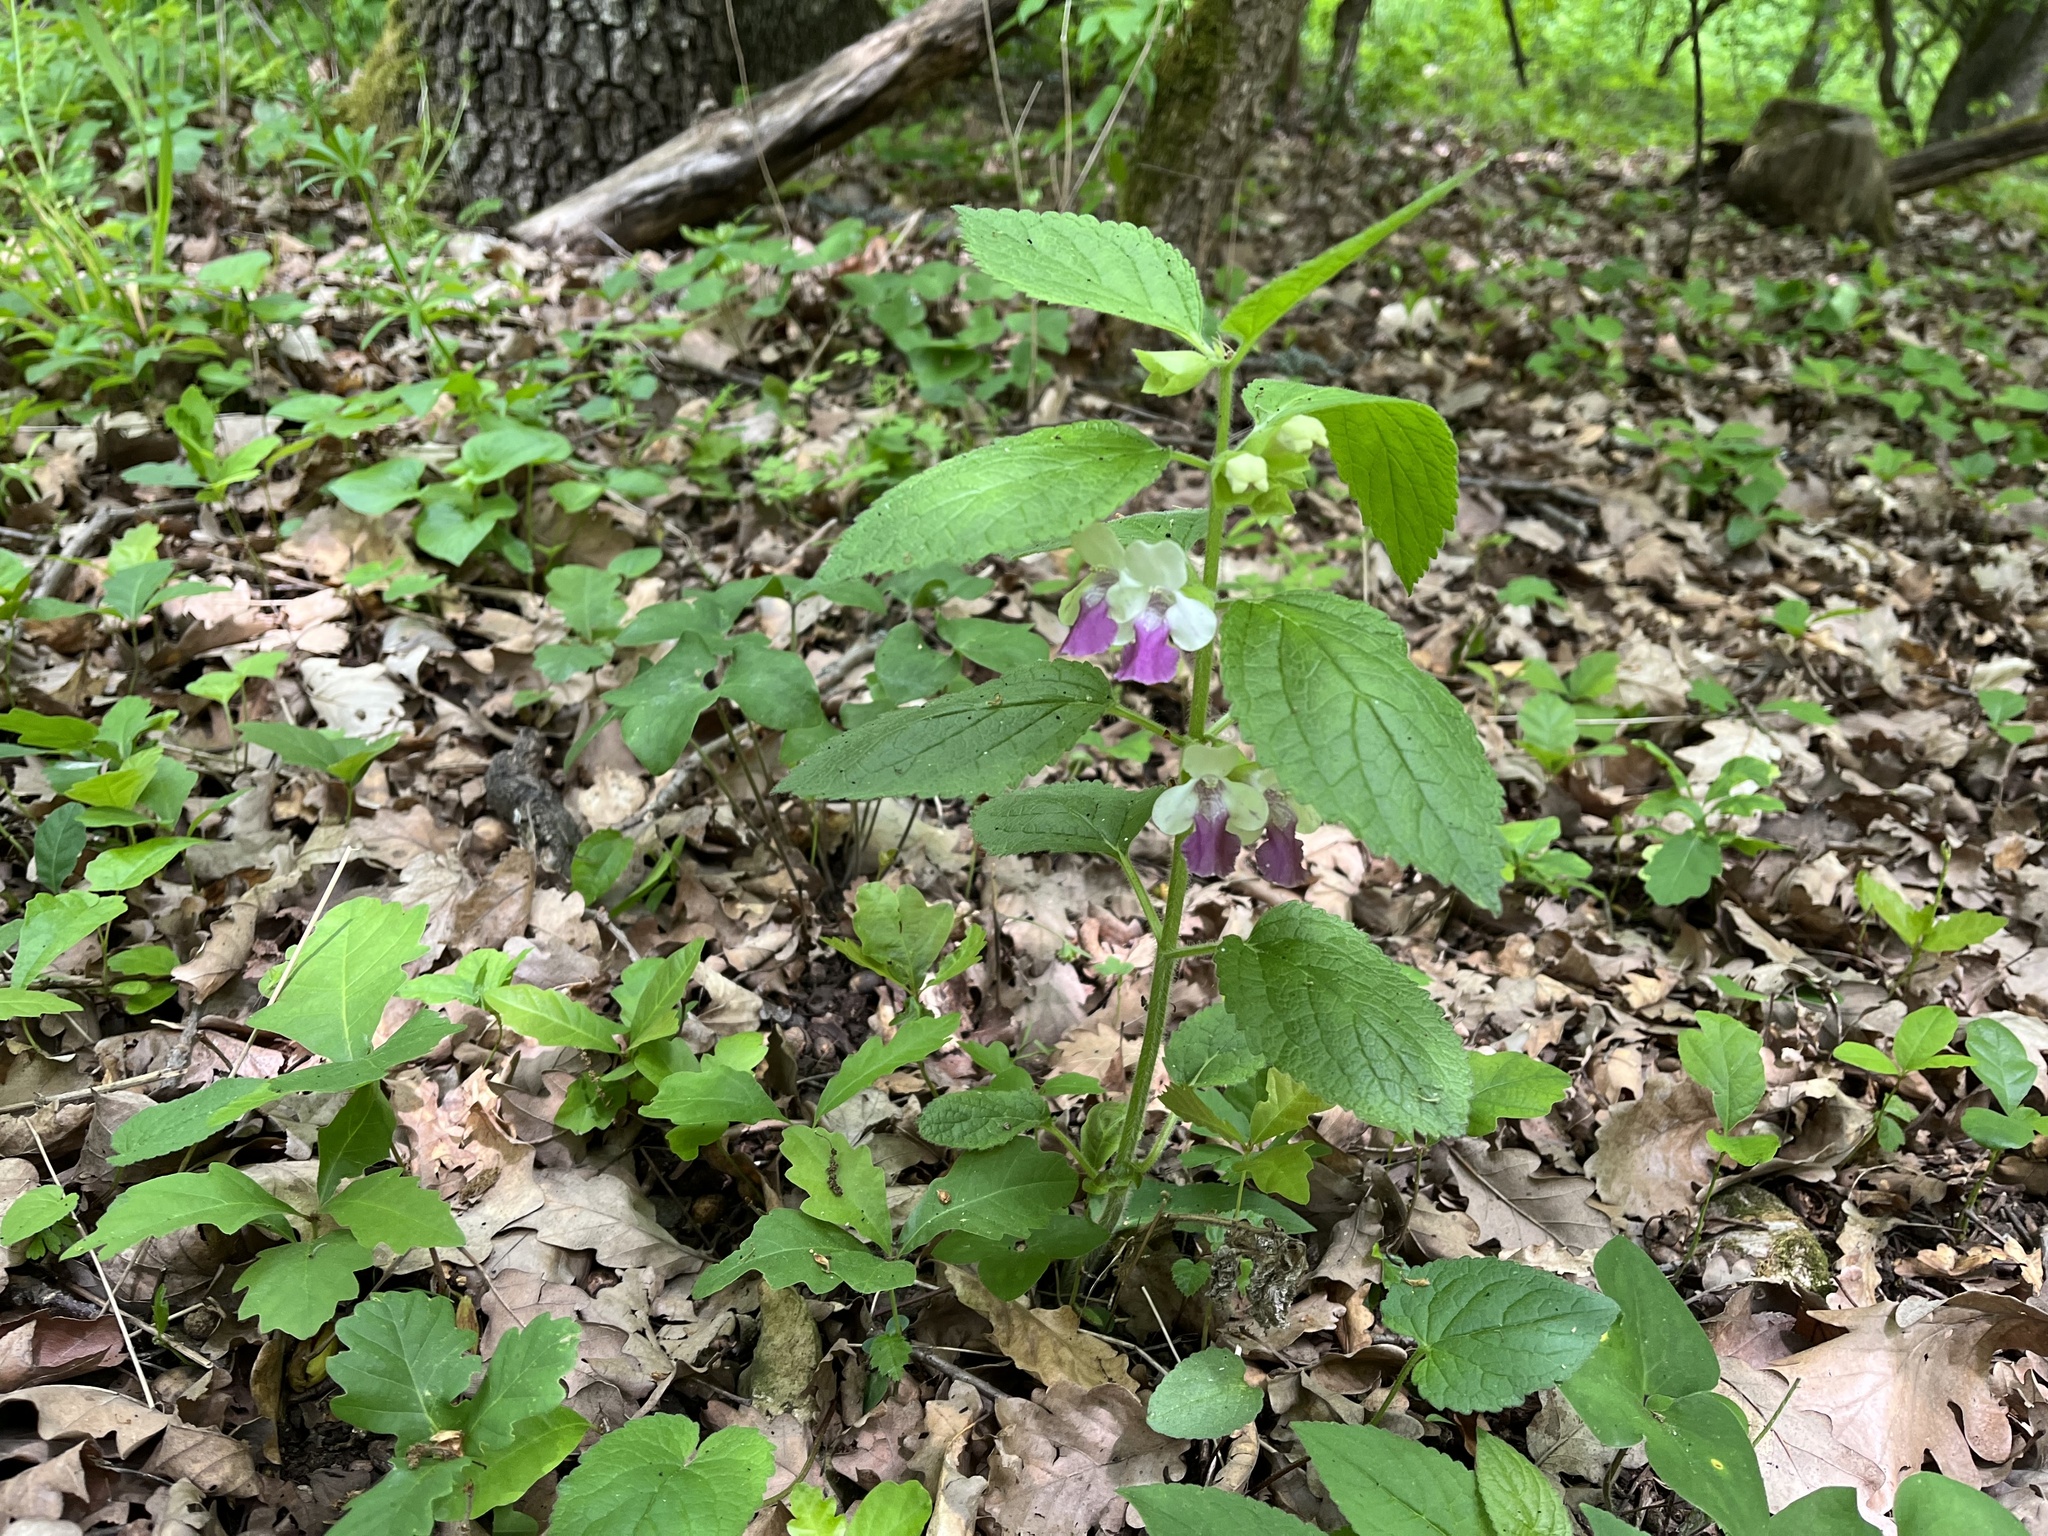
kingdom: Plantae
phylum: Tracheophyta
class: Magnoliopsida
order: Lamiales
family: Lamiaceae
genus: Melittis
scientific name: Melittis melissophyllum
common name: Bastard balm
